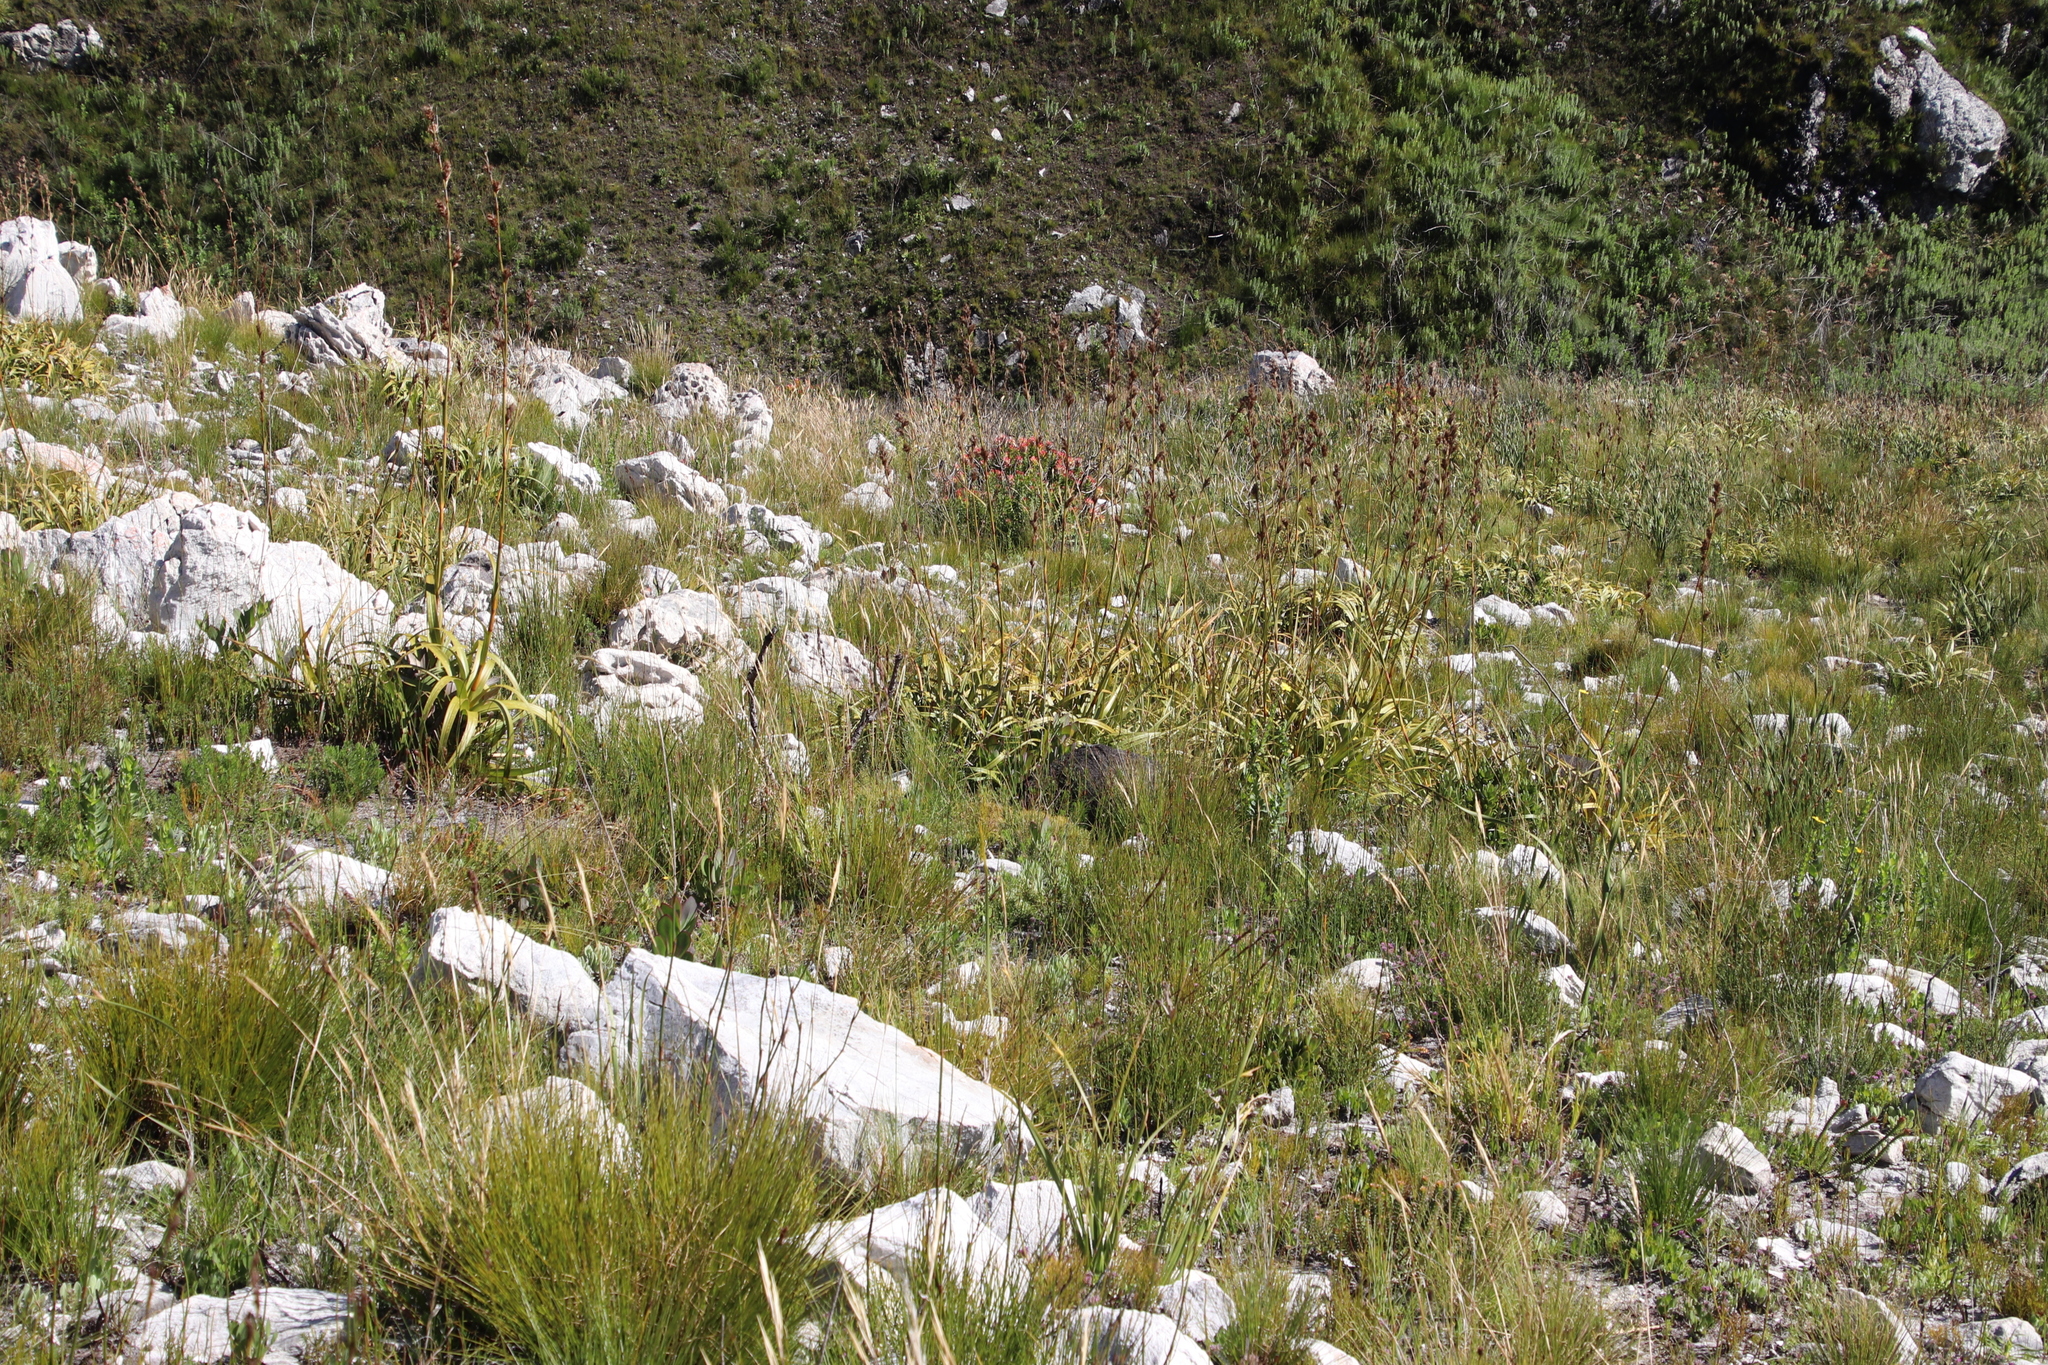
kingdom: Plantae
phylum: Tracheophyta
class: Liliopsida
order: Poales
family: Cyperaceae
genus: Tetraria
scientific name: Tetraria thermalis
